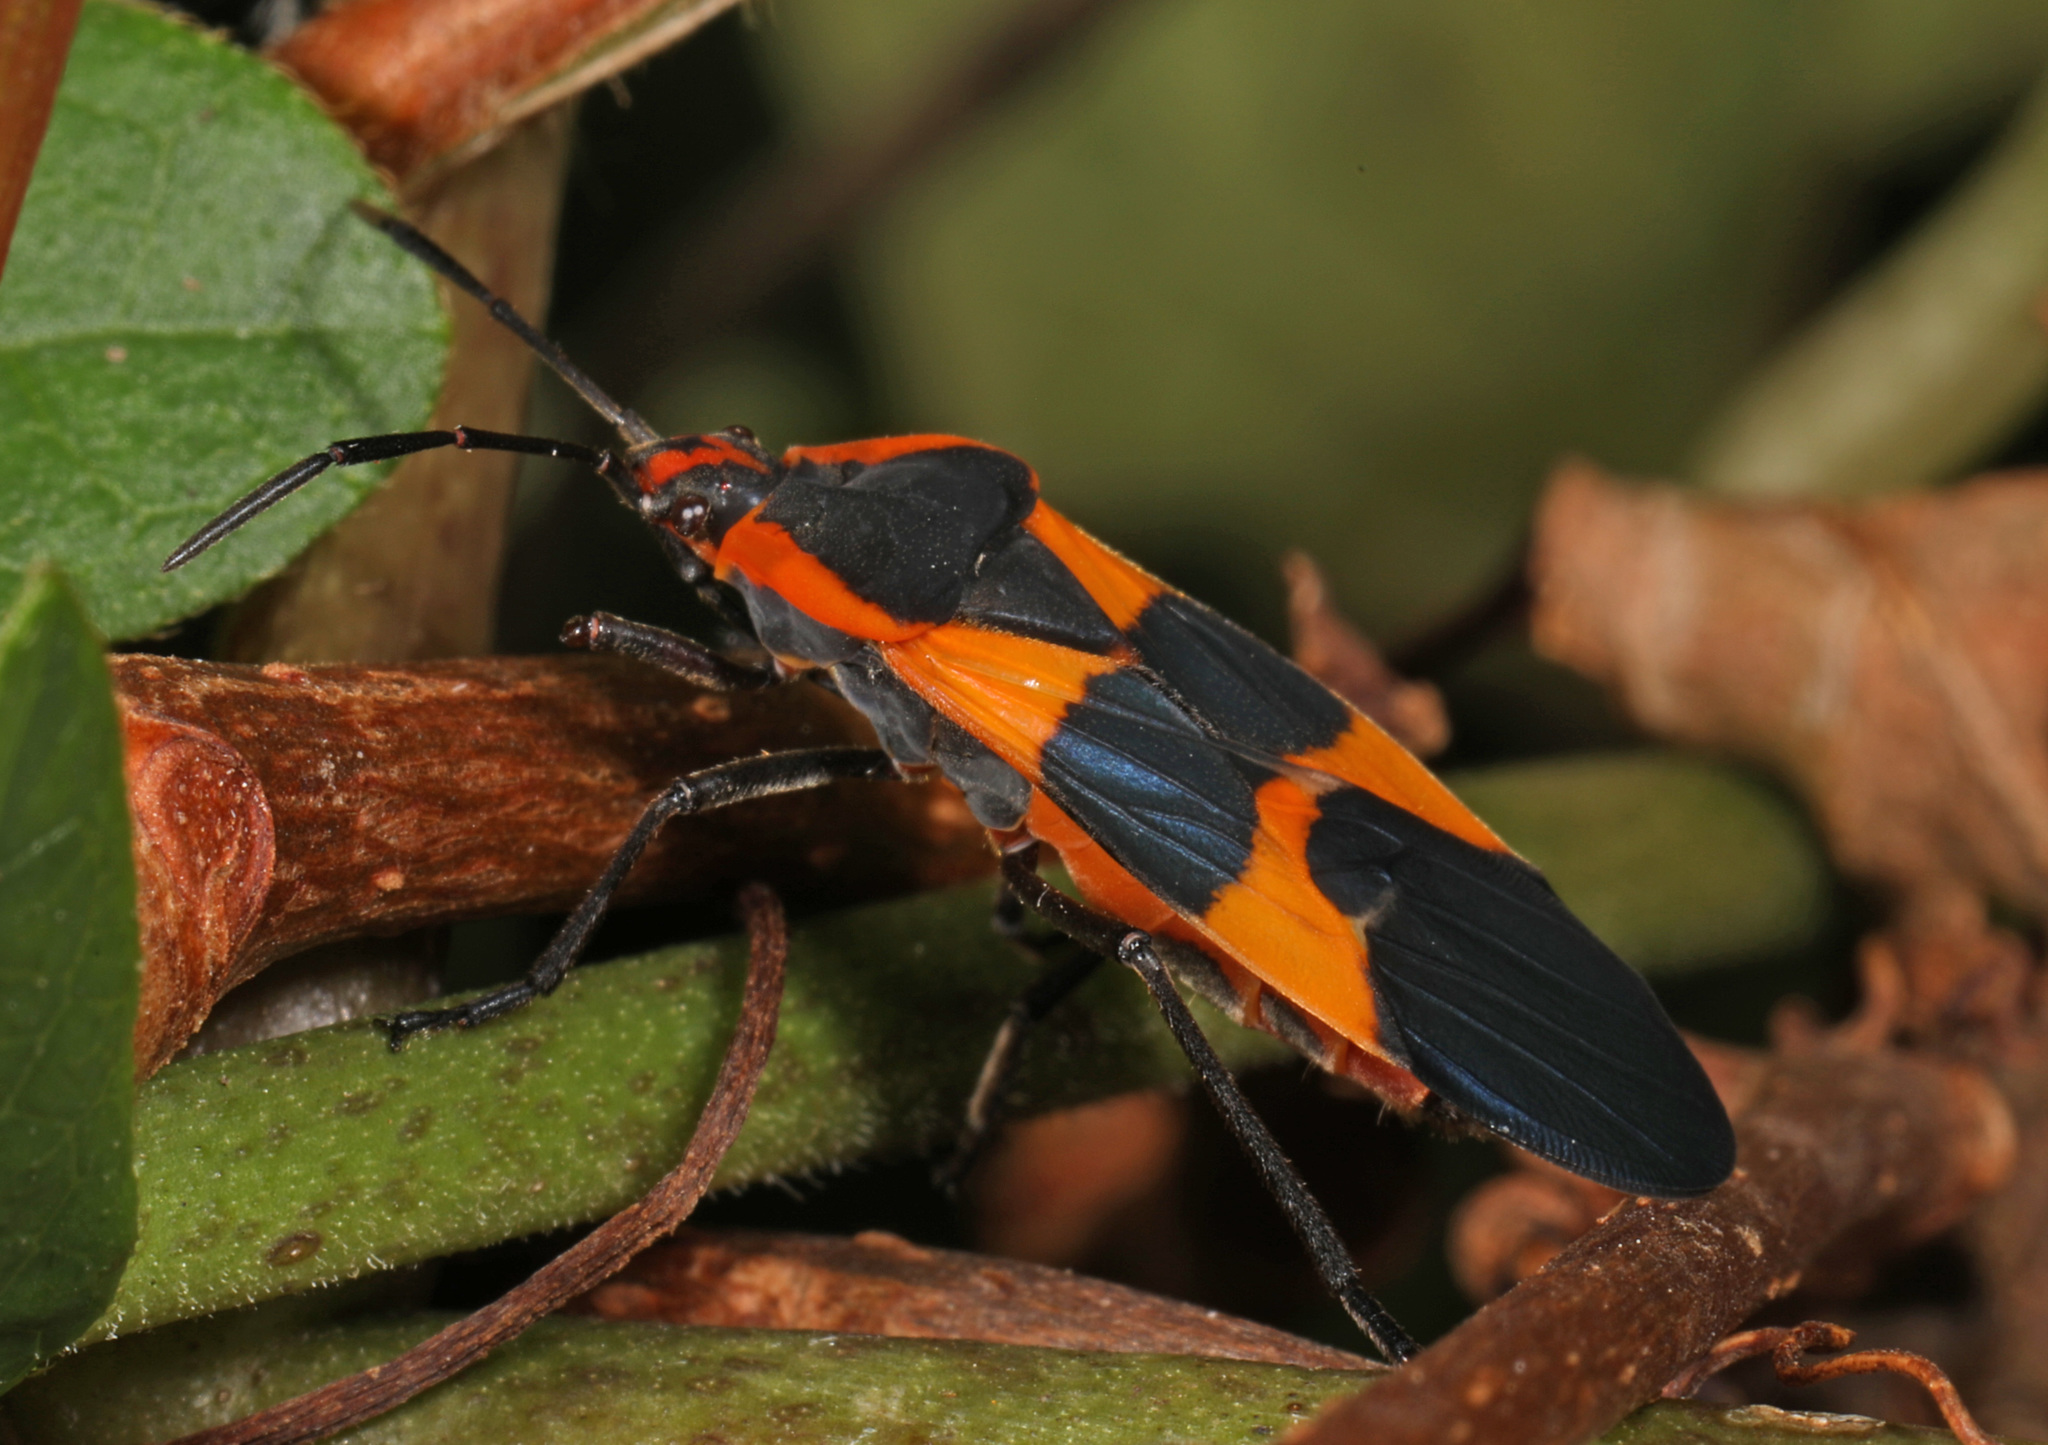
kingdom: Animalia
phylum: Arthropoda
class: Insecta
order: Hemiptera
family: Lygaeidae
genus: Oncopeltus
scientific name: Oncopeltus fasciatus
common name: Large milkweed bug
